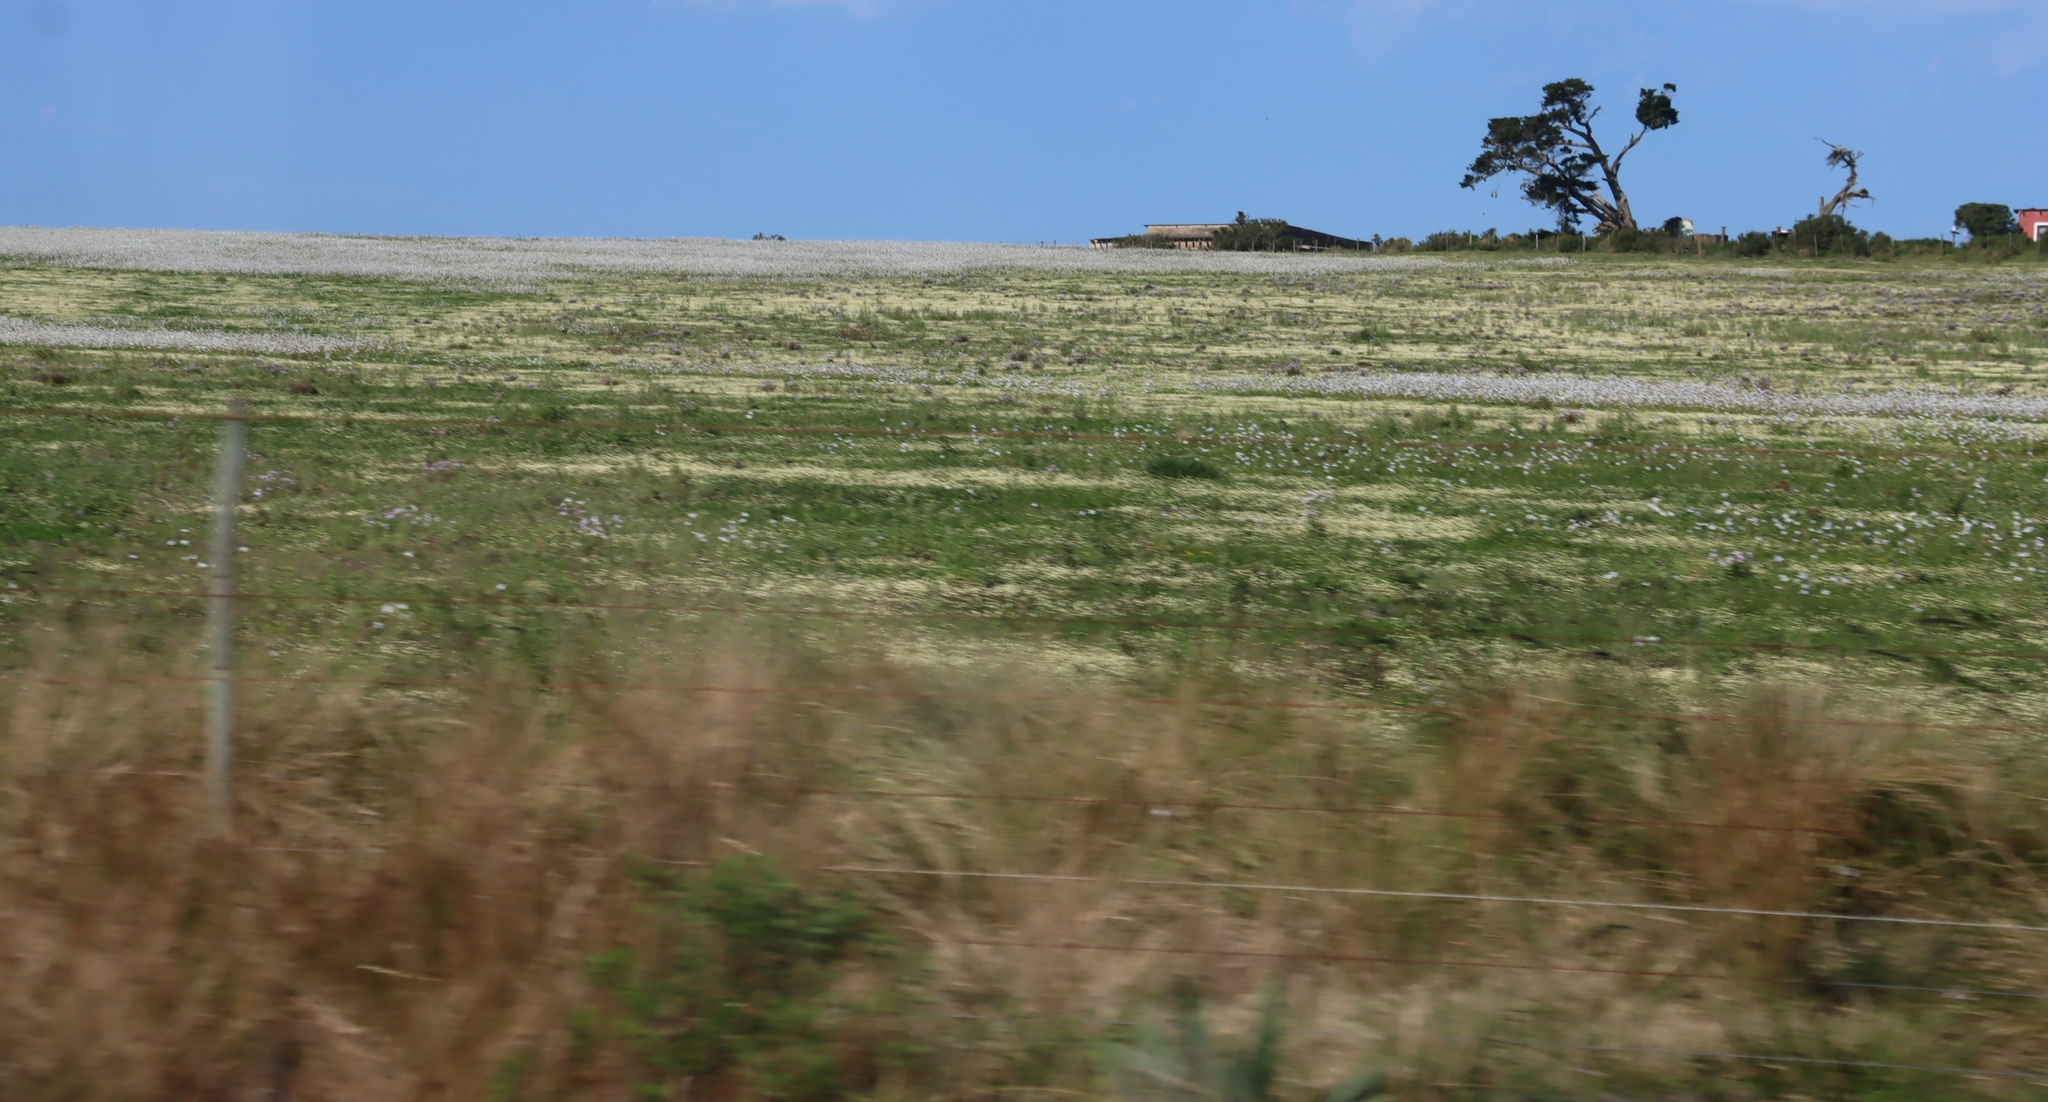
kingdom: Plantae
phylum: Tracheophyta
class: Liliopsida
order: Asparagales
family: Iridaceae
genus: Moraea
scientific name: Moraea polyanthos
